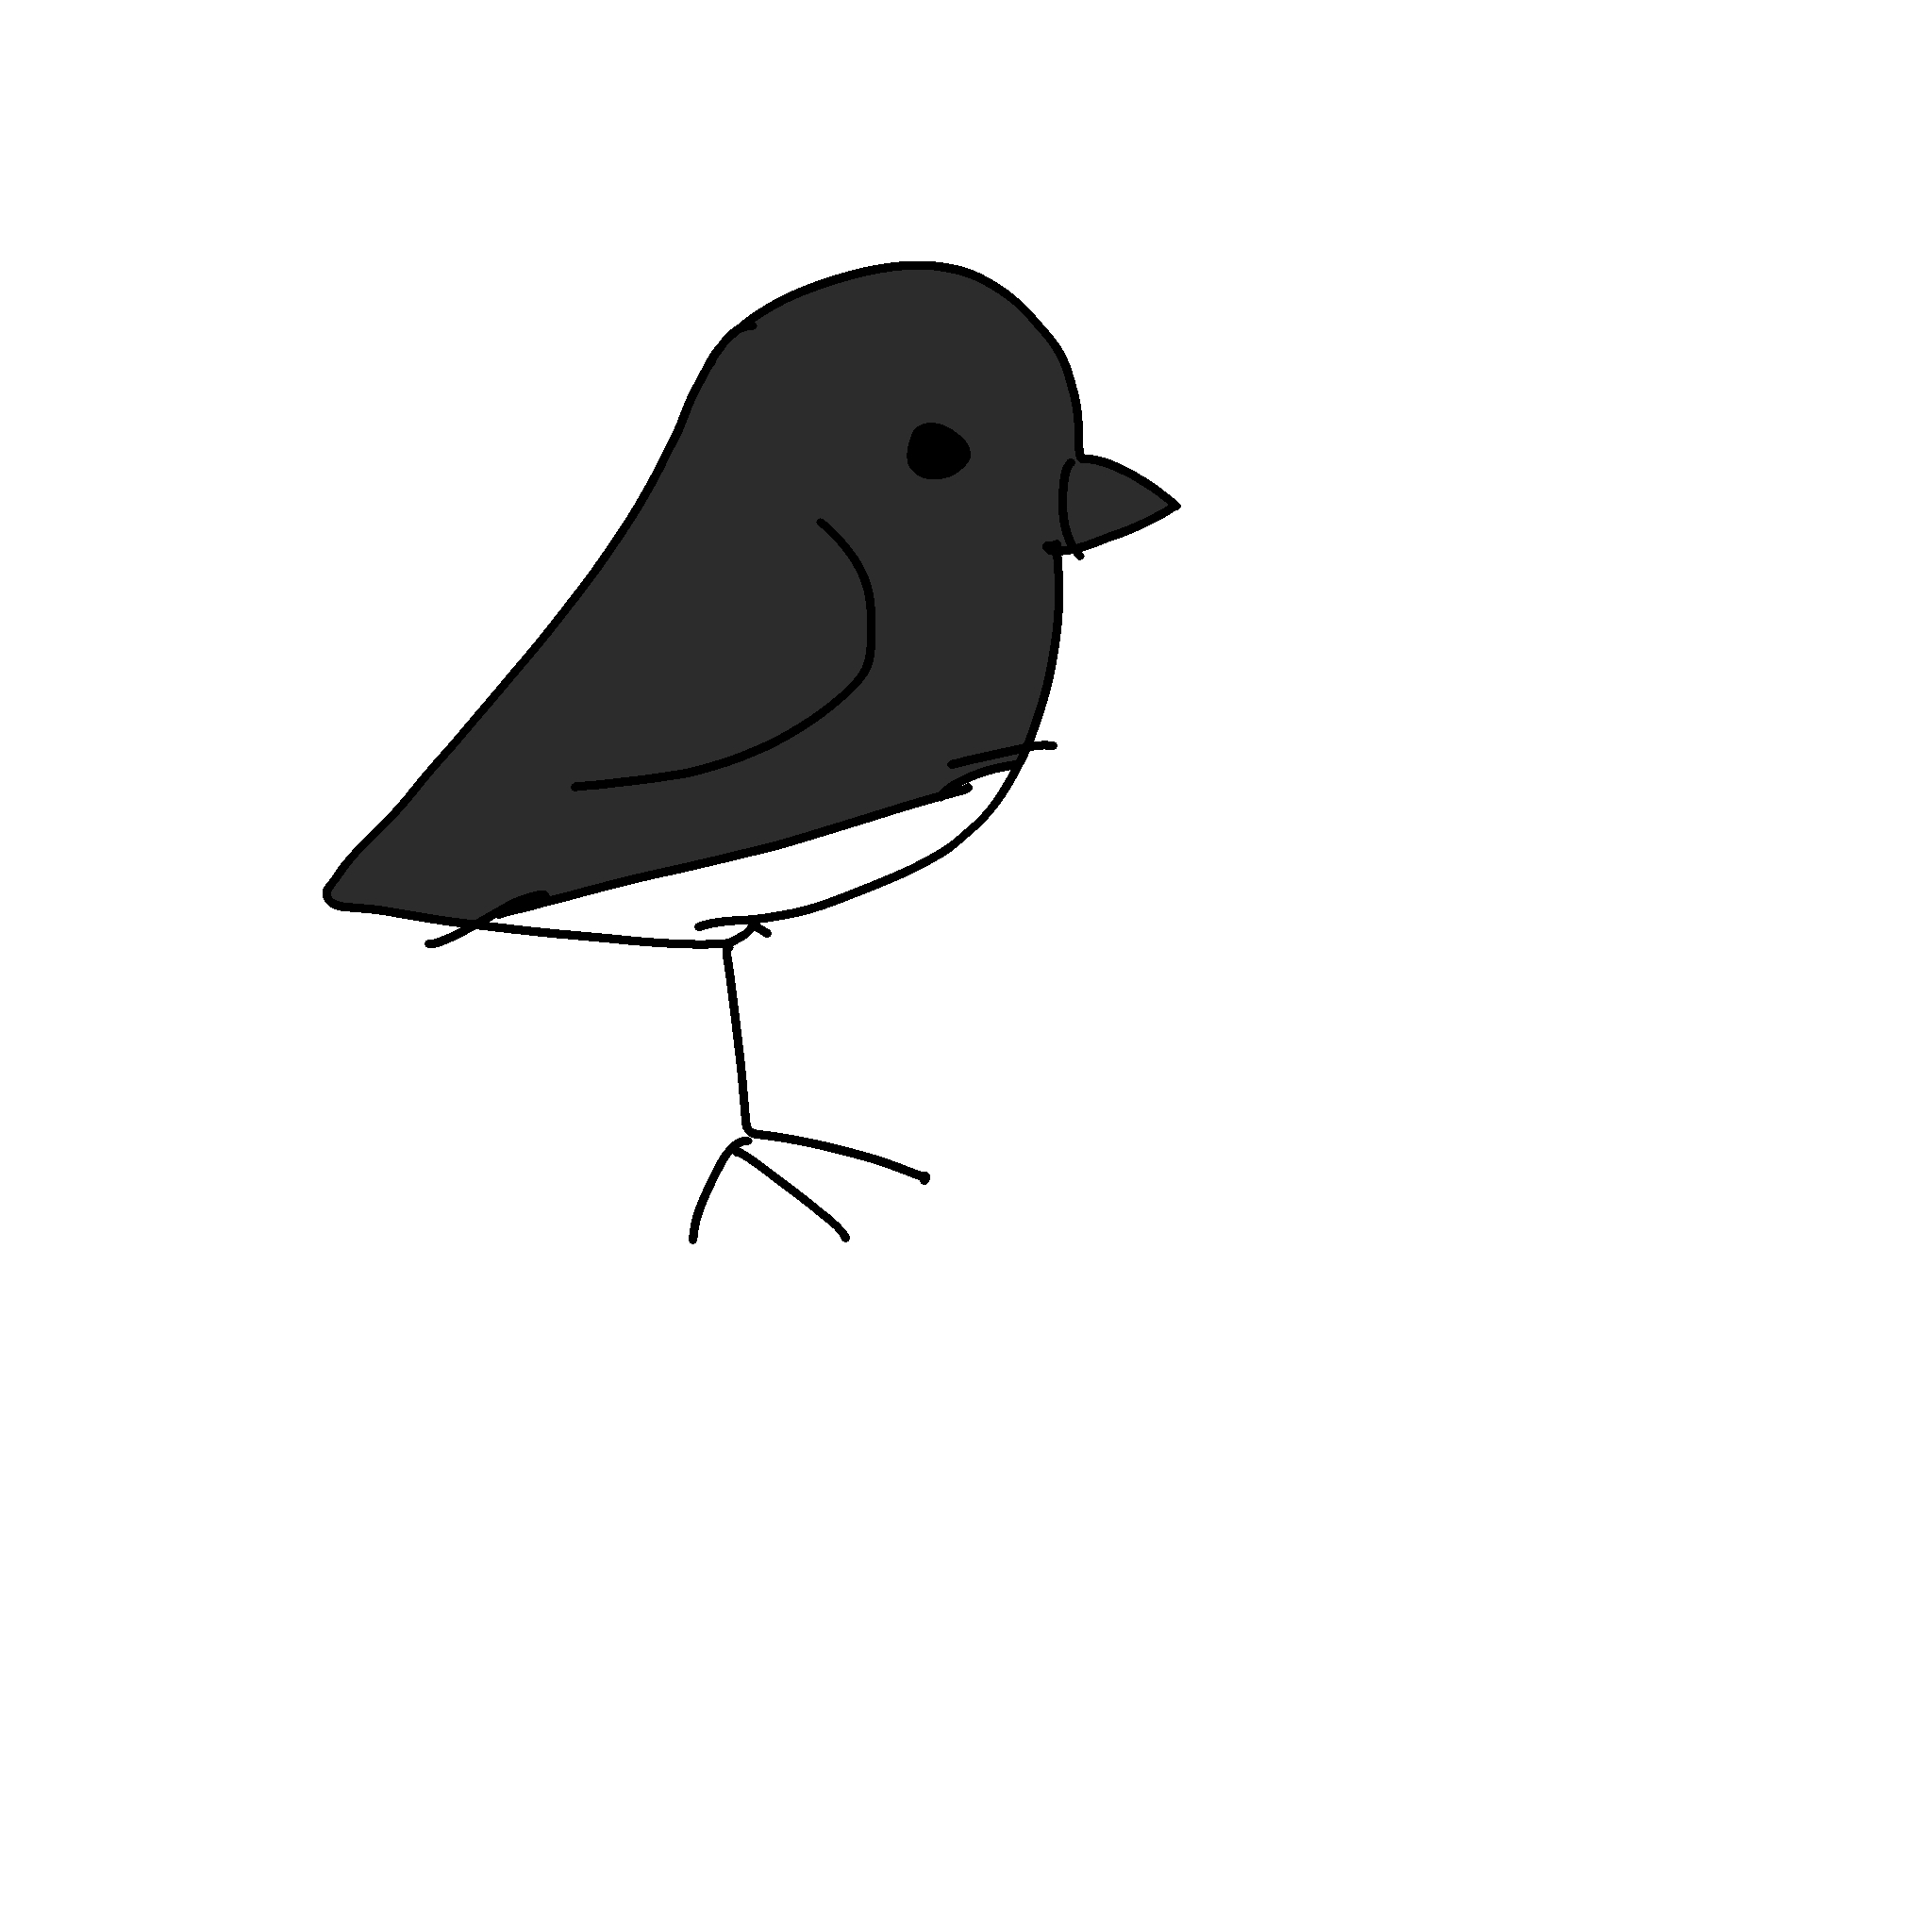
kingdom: Animalia
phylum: Chordata
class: Aves
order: Passeriformes
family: Passerellidae
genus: Junco
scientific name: Junco hyemalis
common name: Dark-eyed junco
